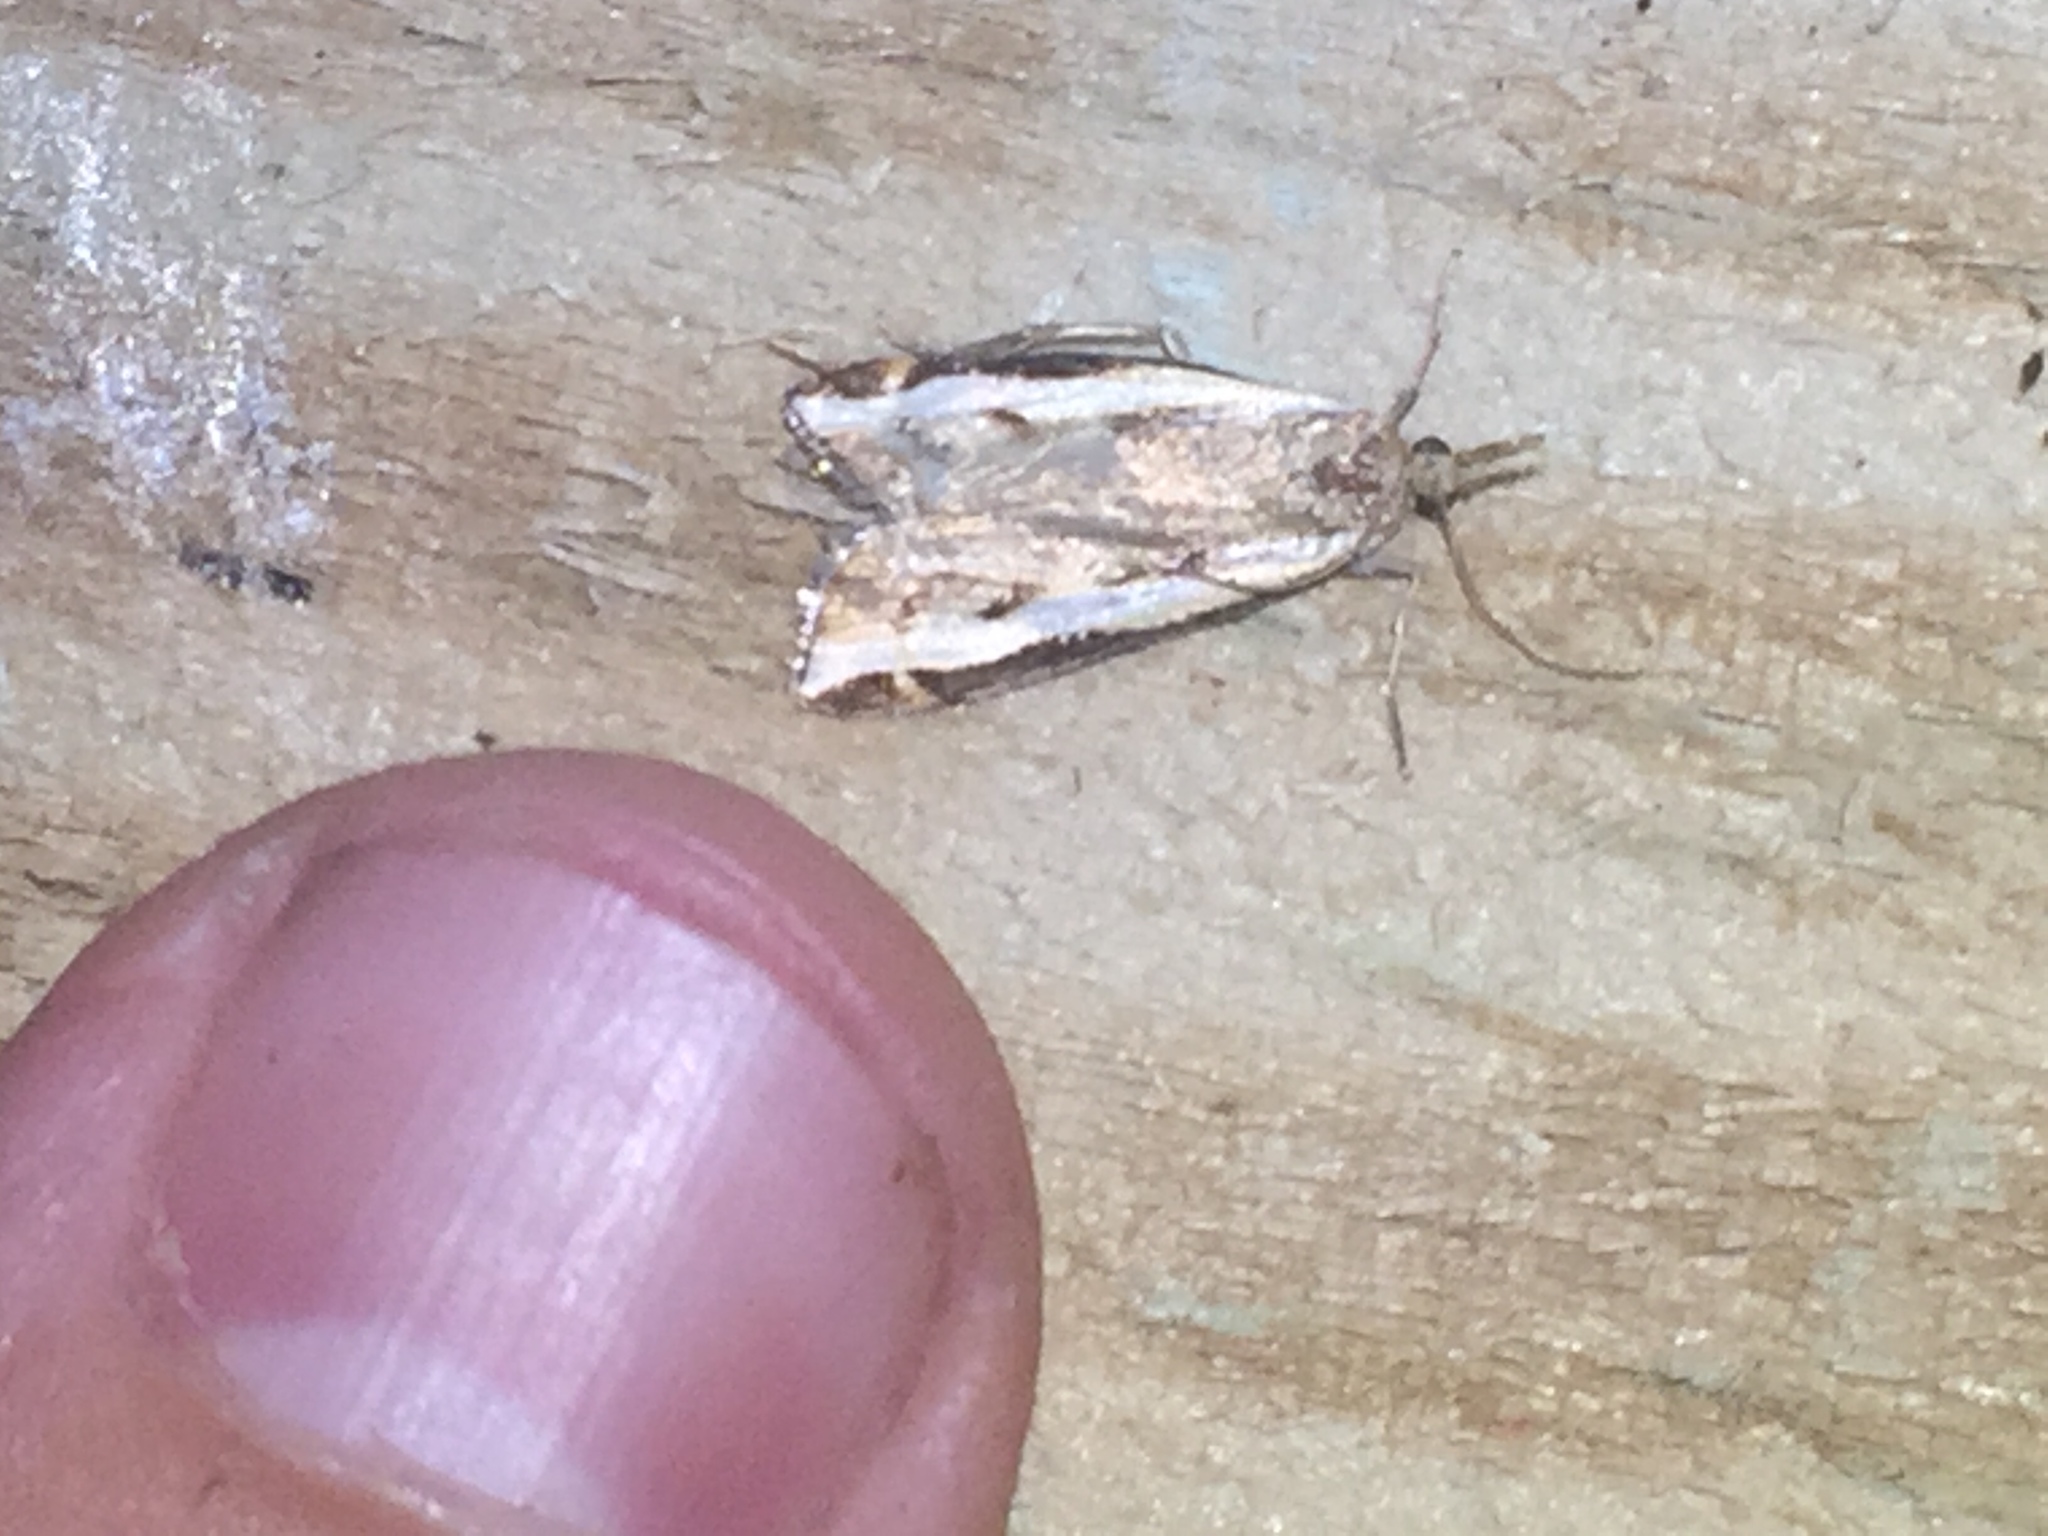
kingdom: Animalia
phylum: Arthropoda
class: Insecta
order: Lepidoptera
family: Crambidae
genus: Orocrambus
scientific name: Orocrambus flexuosellus
